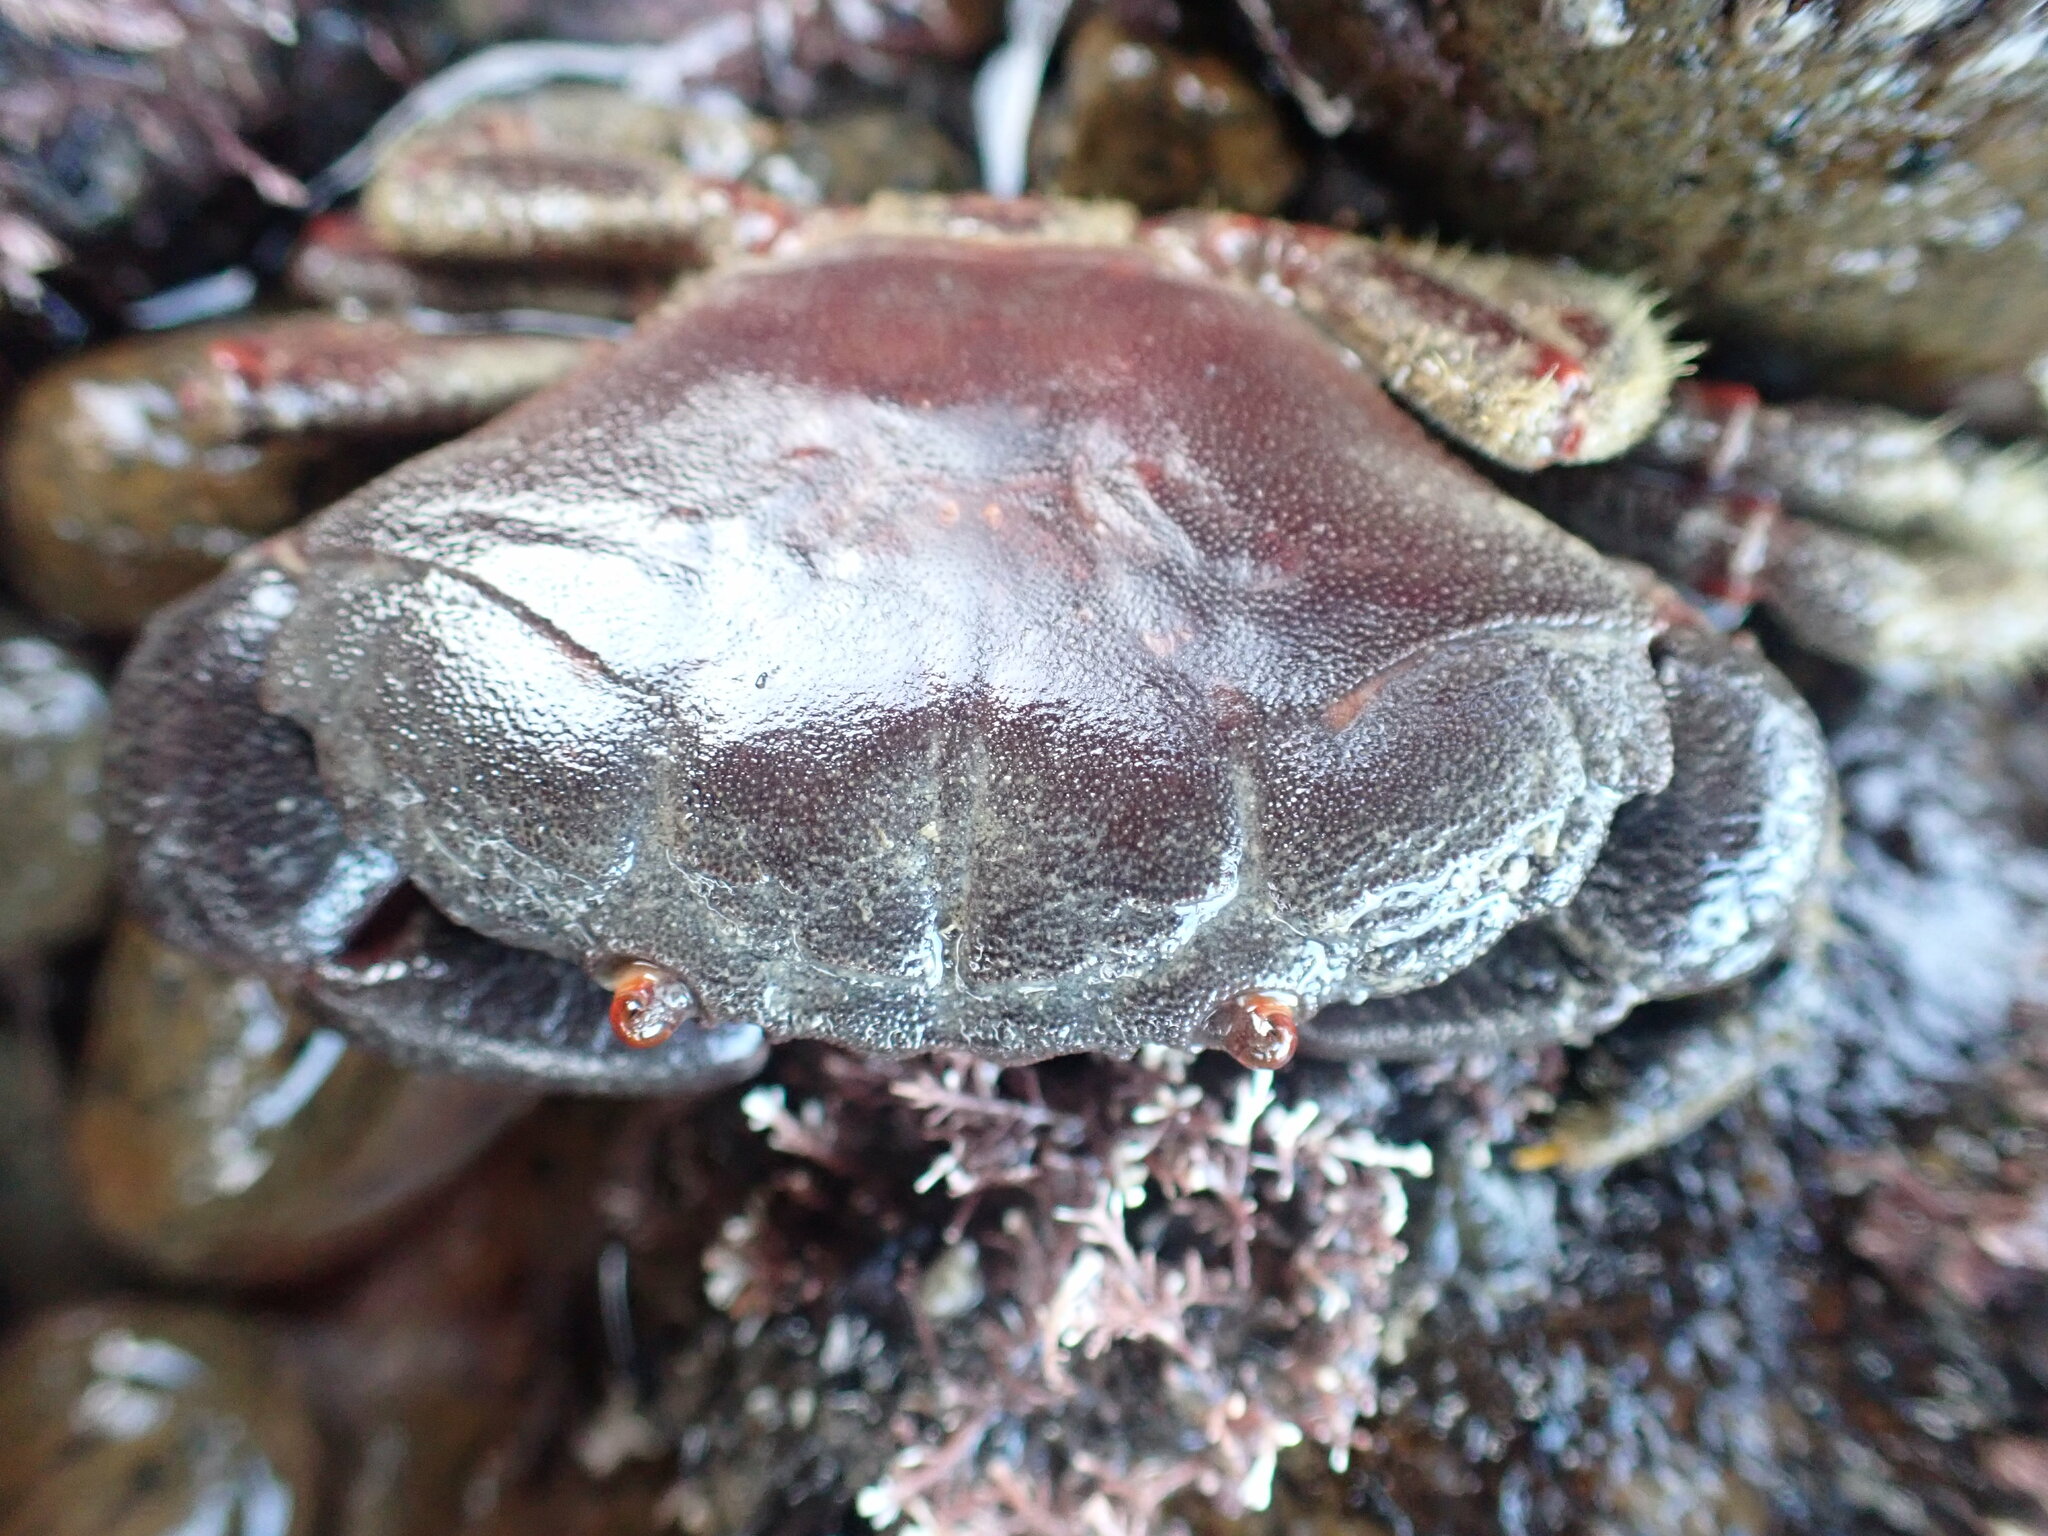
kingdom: Animalia
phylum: Arthropoda
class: Malacostraca
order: Decapoda
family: Oziidae
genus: Ozius
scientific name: Ozius deplanatus
